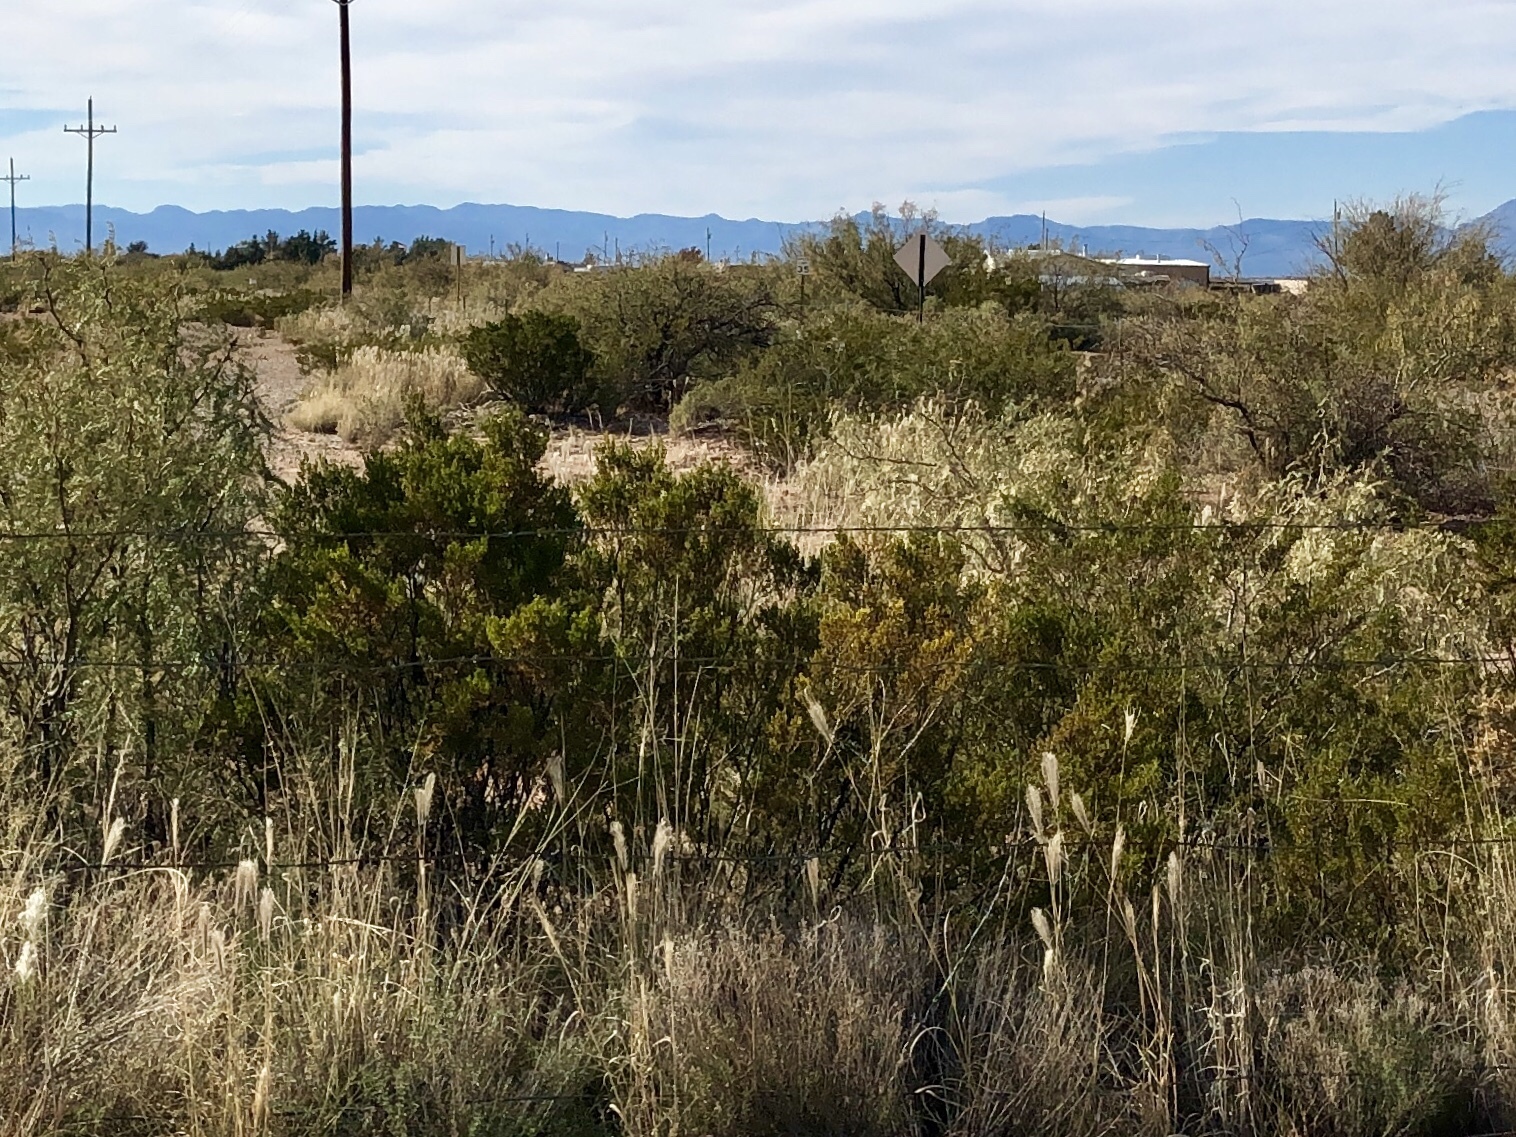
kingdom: Plantae
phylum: Tracheophyta
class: Magnoliopsida
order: Zygophyllales
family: Zygophyllaceae
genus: Larrea
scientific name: Larrea tridentata
